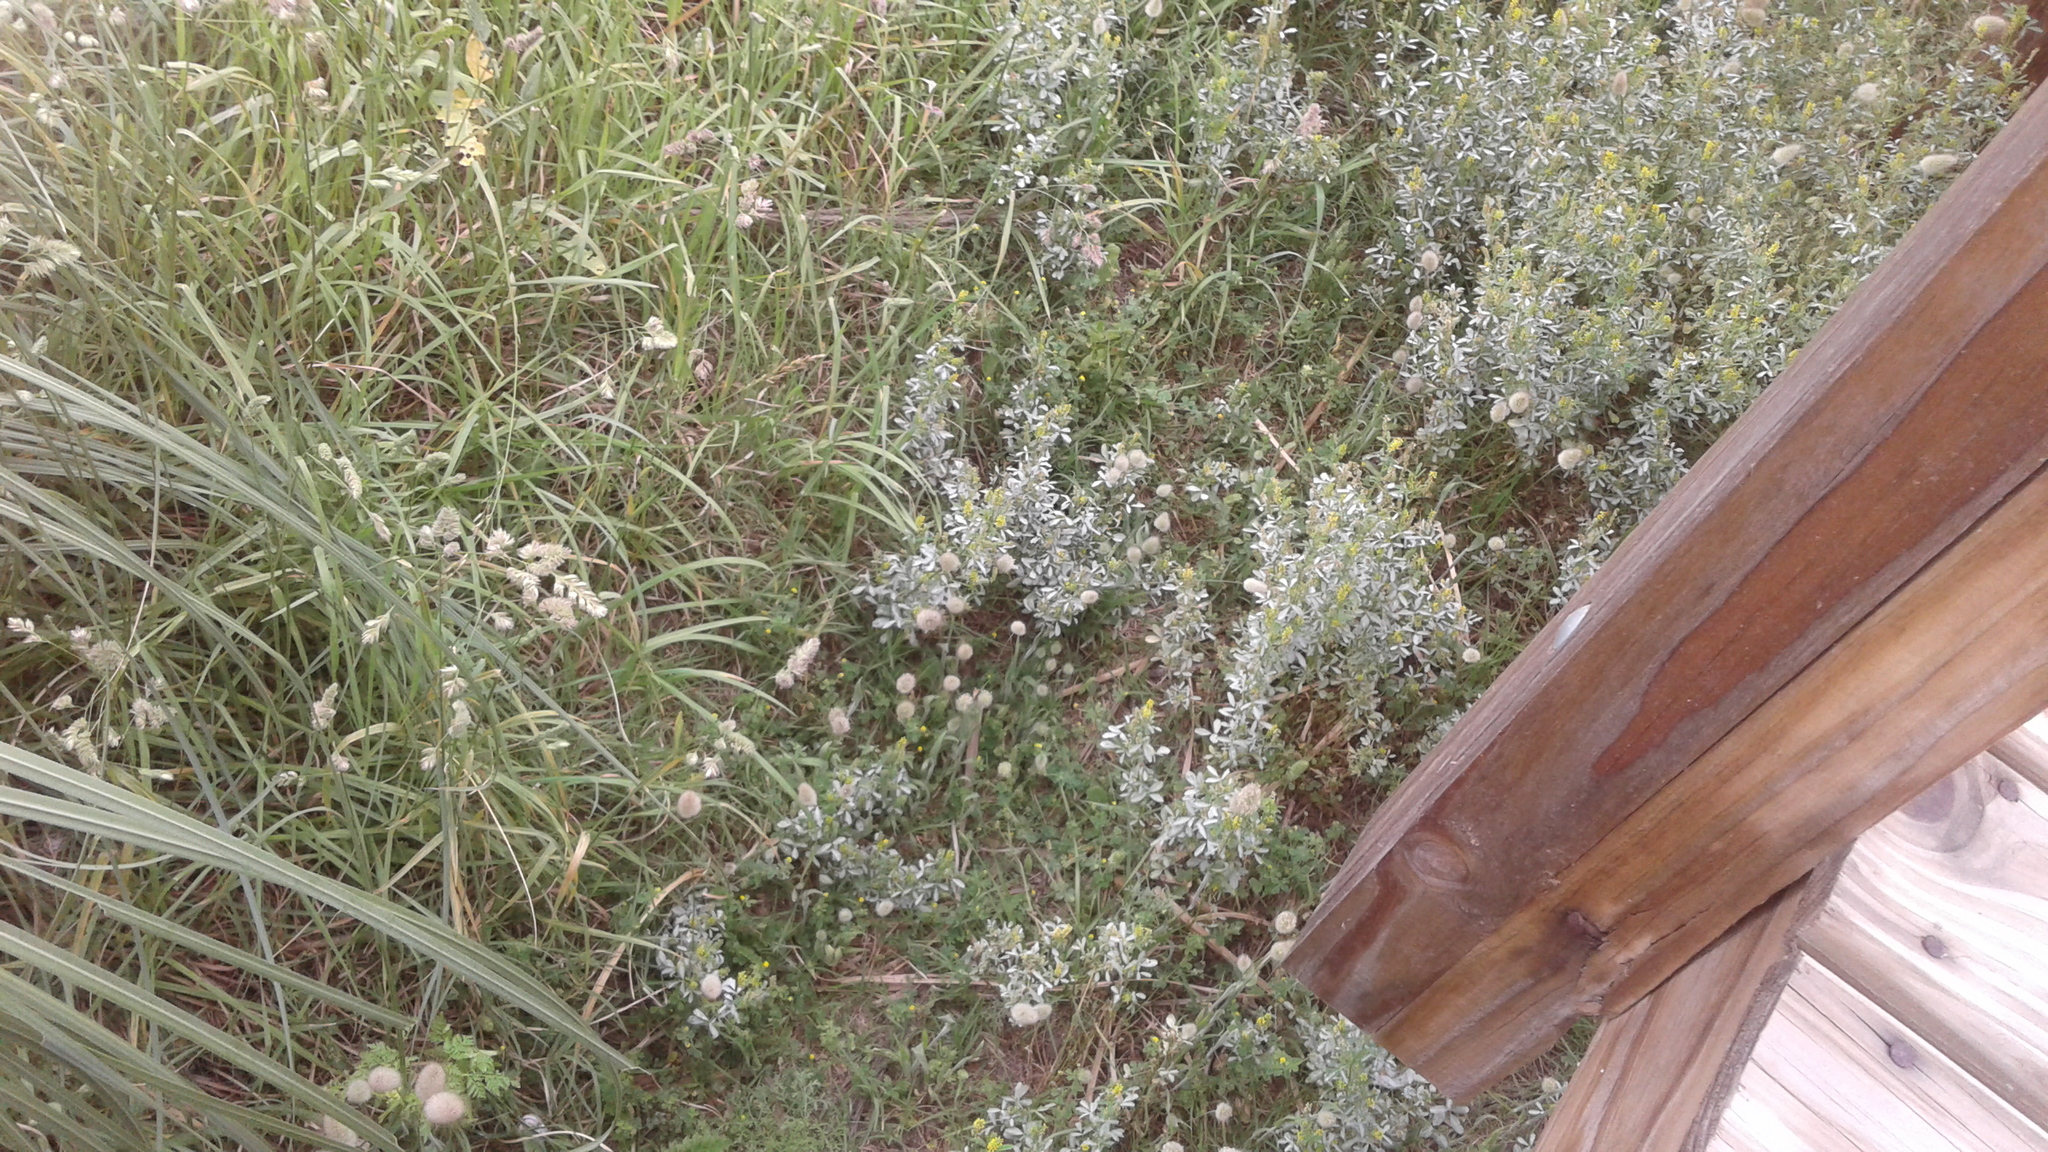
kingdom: Plantae
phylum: Tracheophyta
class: Liliopsida
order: Poales
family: Poaceae
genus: Dactylis
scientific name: Dactylis glomerata
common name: Orchardgrass
